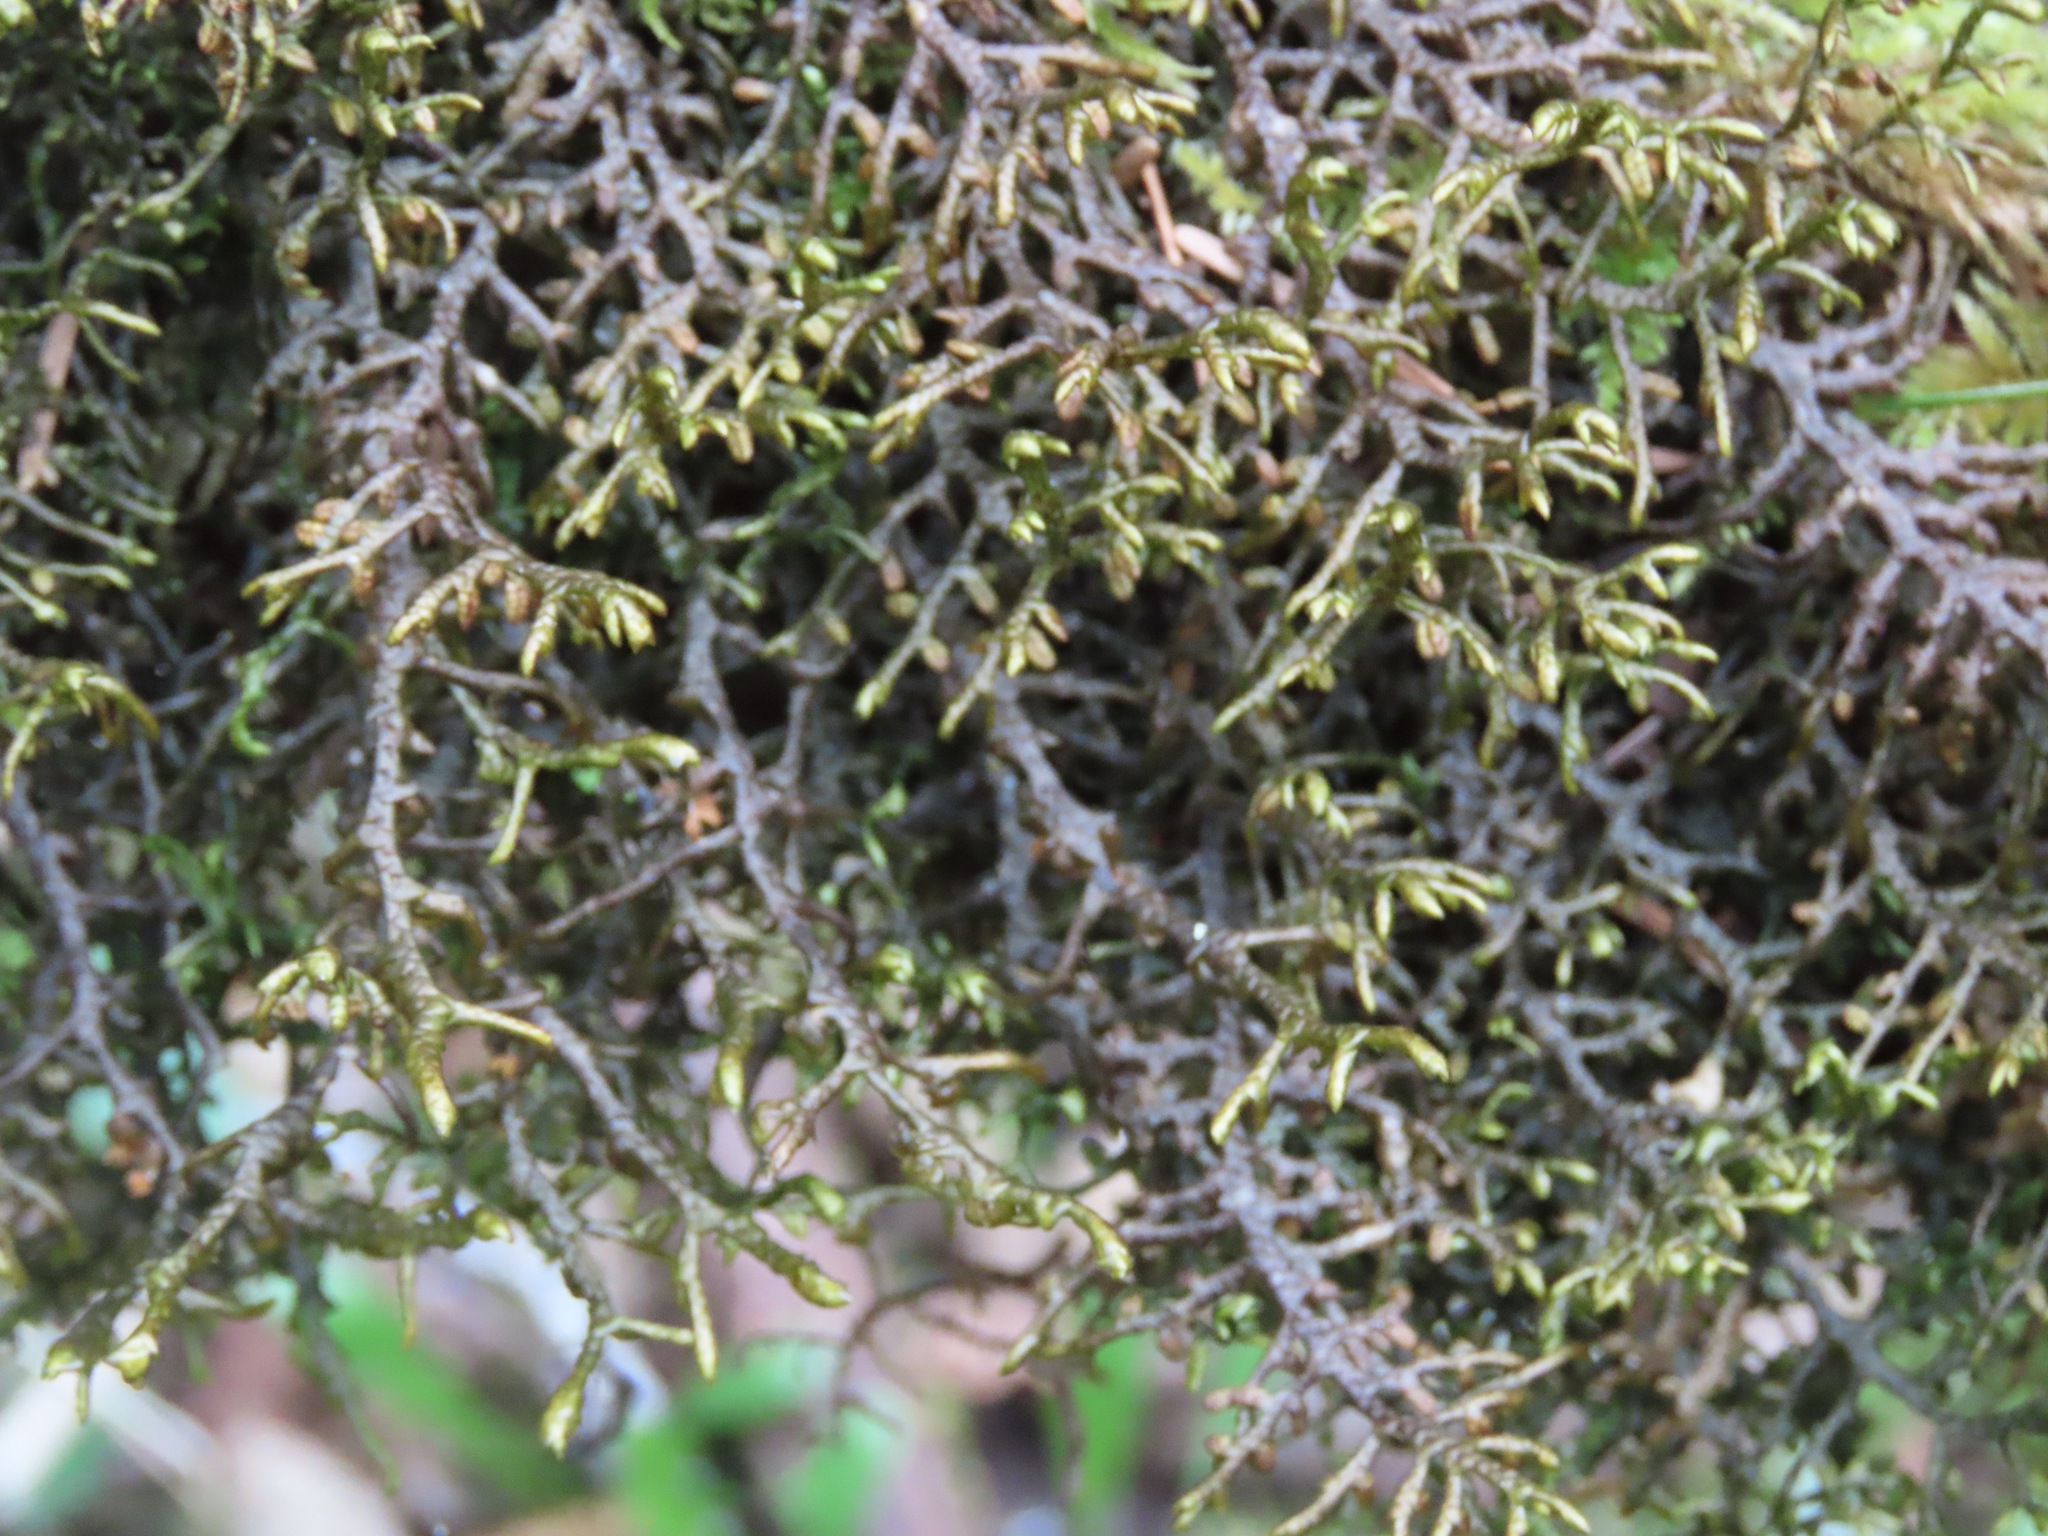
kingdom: Plantae
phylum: Marchantiophyta
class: Jungermanniopsida
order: Porellales
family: Porellaceae
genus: Porella
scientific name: Porella navicularis
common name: Tree ruffle liverwort
